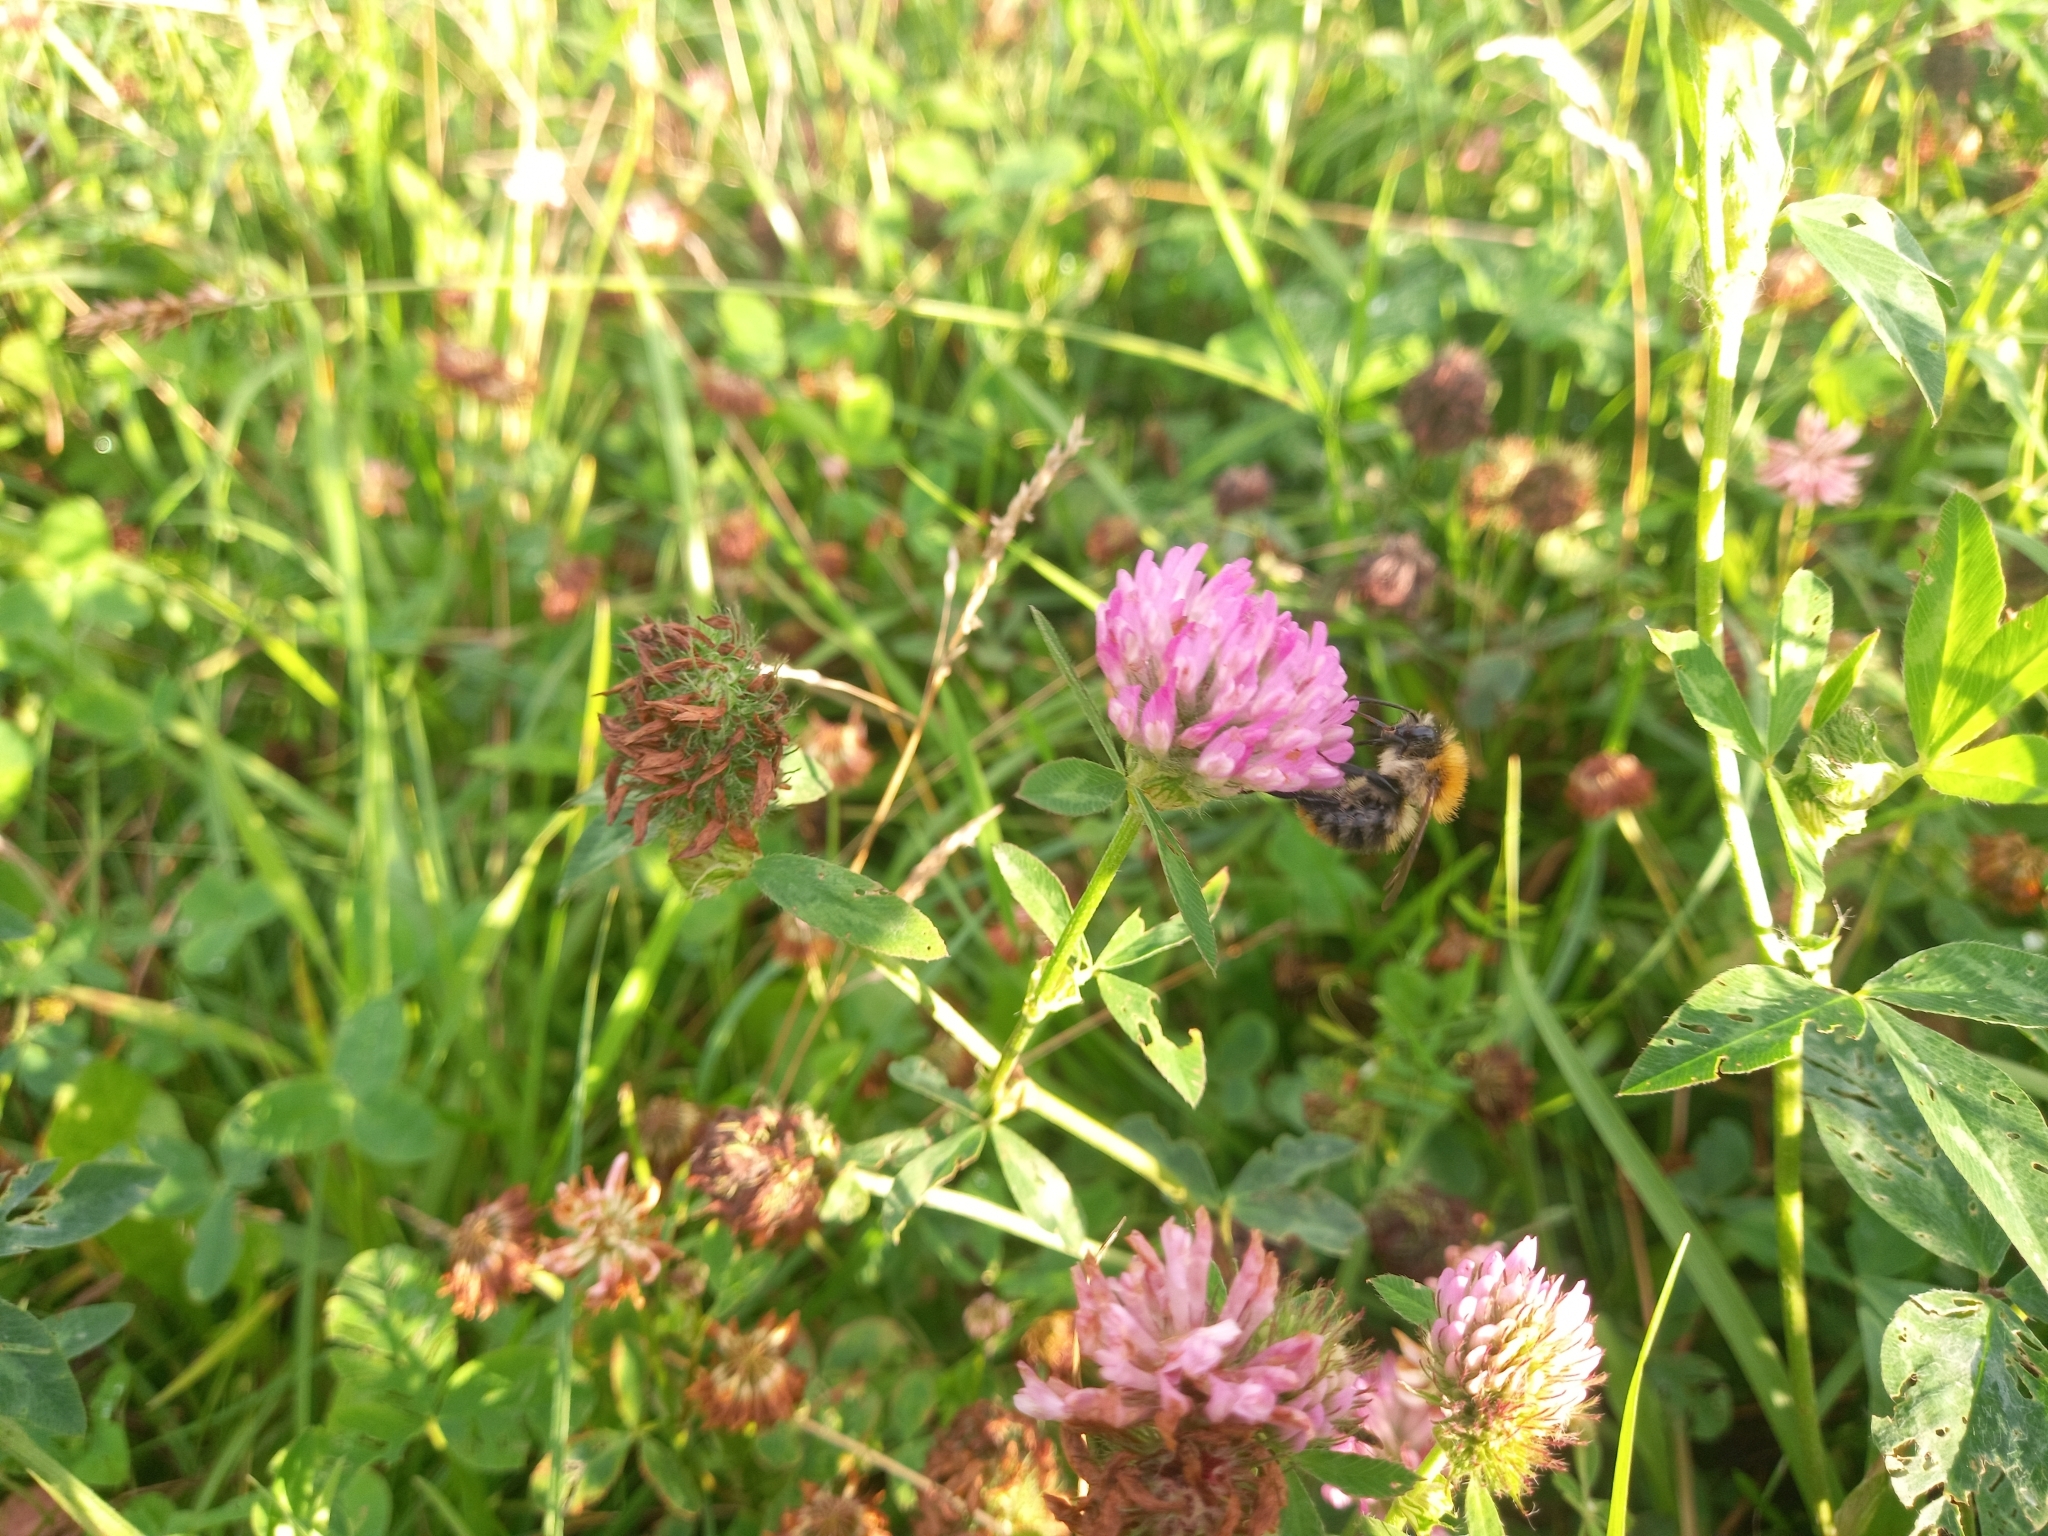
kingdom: Animalia
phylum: Arthropoda
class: Insecta
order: Hymenoptera
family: Apidae
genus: Bombus
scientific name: Bombus pascuorum
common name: Common carder bee
